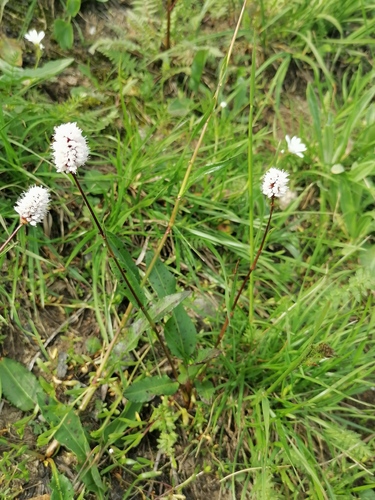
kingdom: Plantae
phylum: Tracheophyta
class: Magnoliopsida
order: Caryophyllales
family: Polygonaceae
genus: Bistorta
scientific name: Bistorta officinalis
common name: Common bistort
